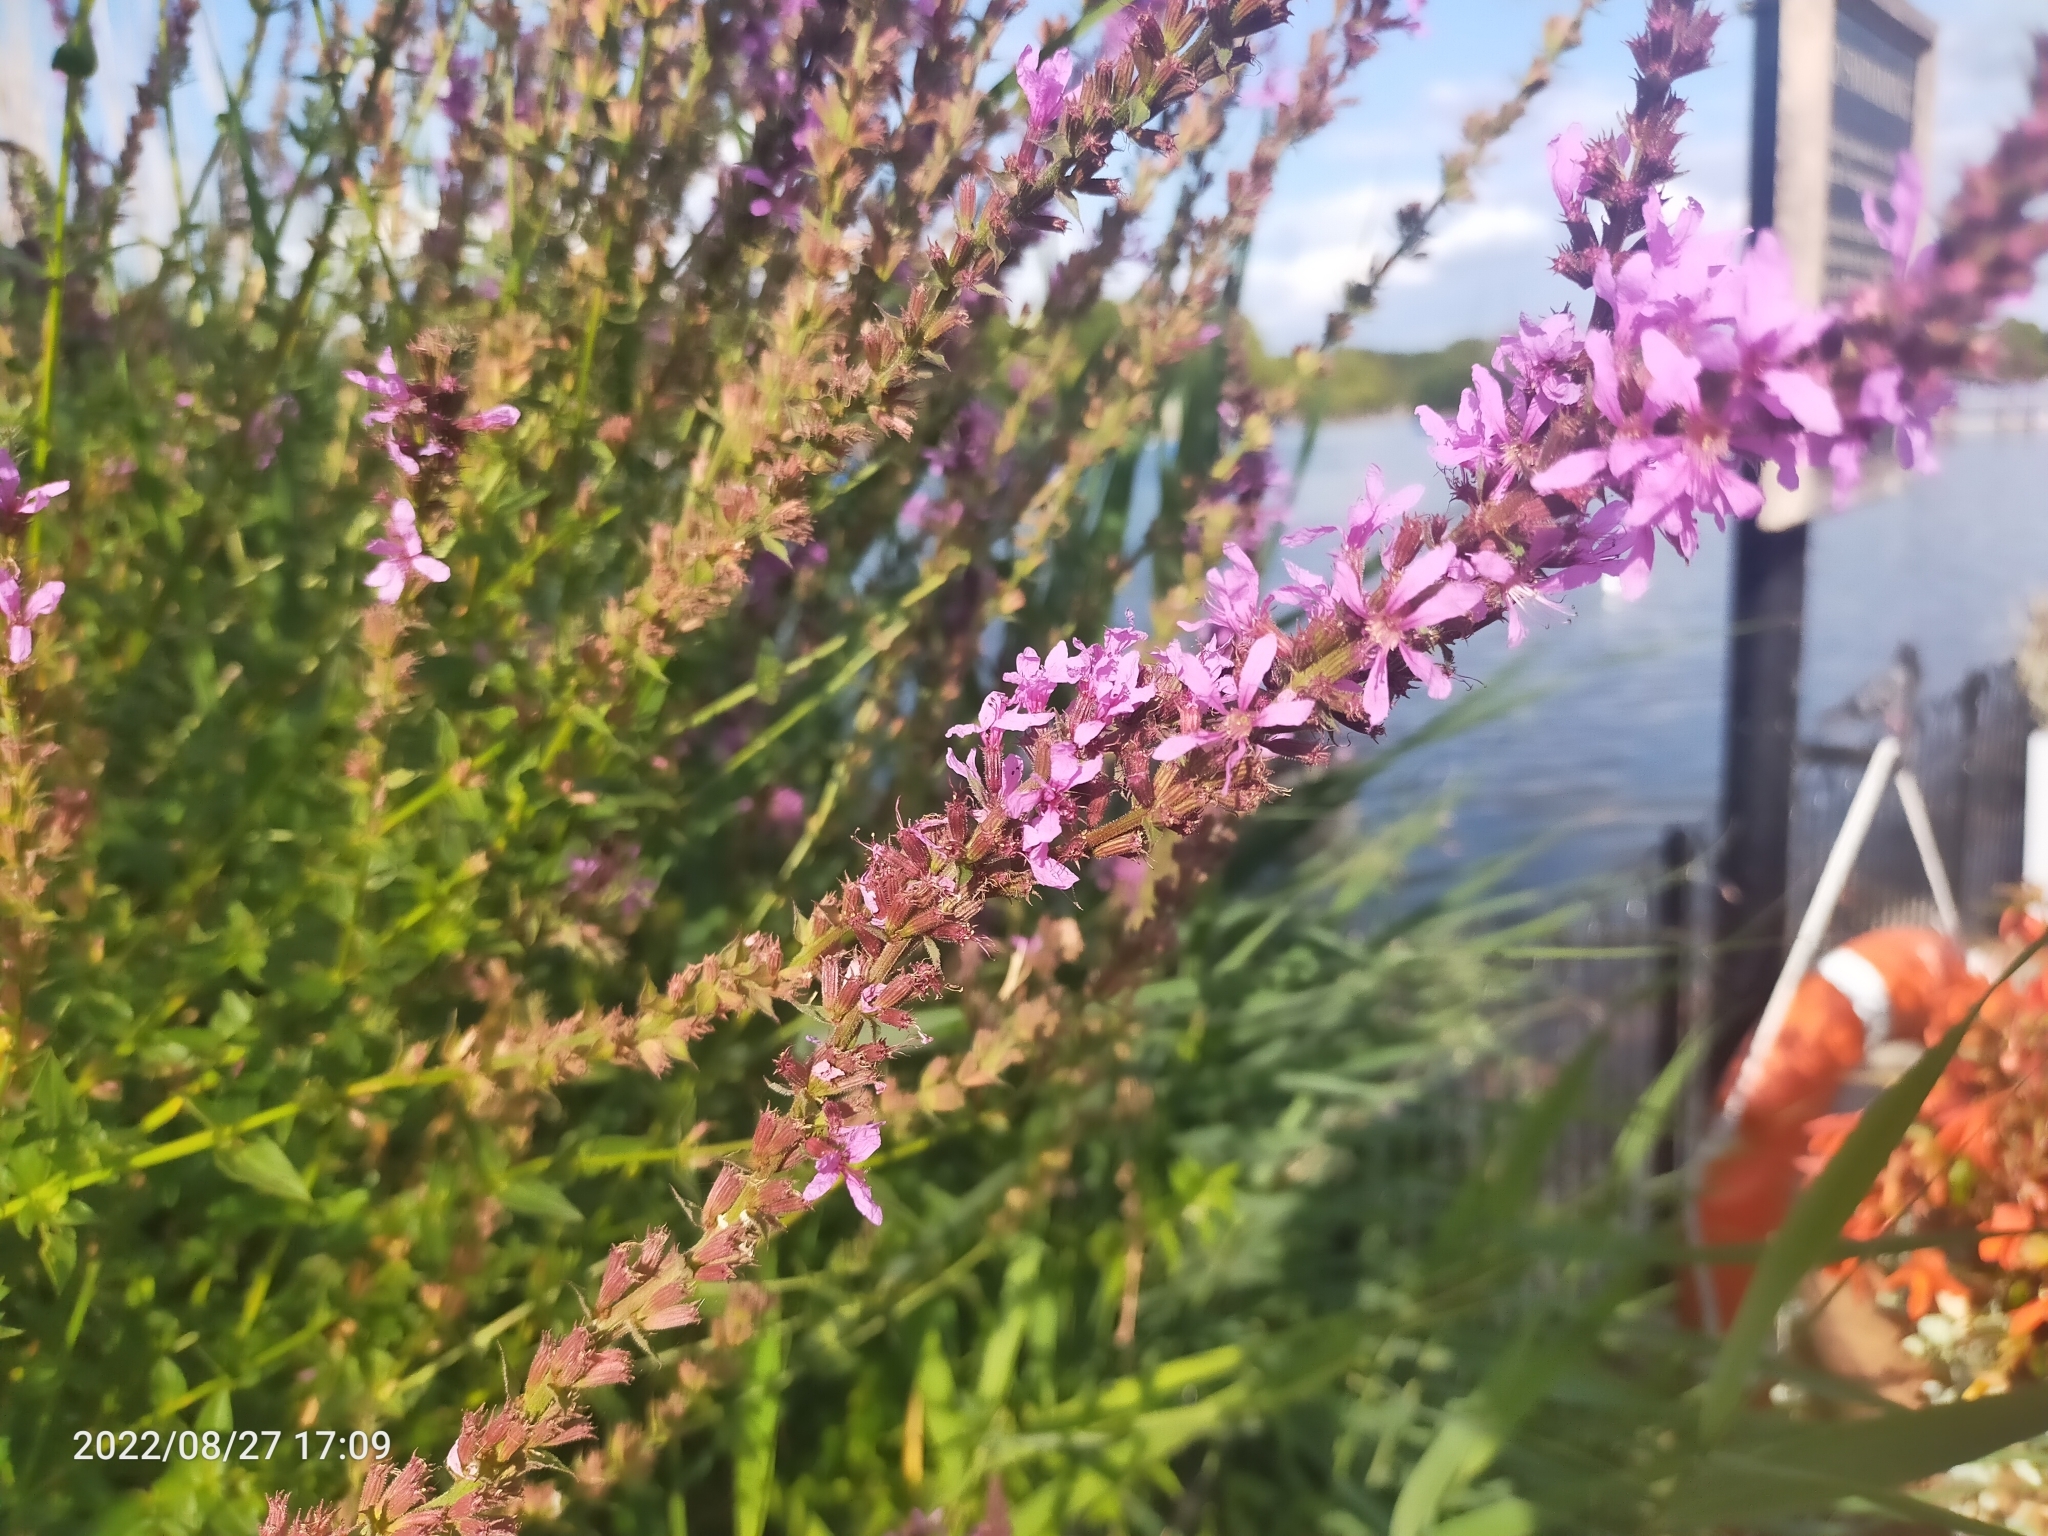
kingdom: Plantae
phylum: Tracheophyta
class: Magnoliopsida
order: Myrtales
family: Lythraceae
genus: Lythrum
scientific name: Lythrum salicaria
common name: Purple loosestrife
